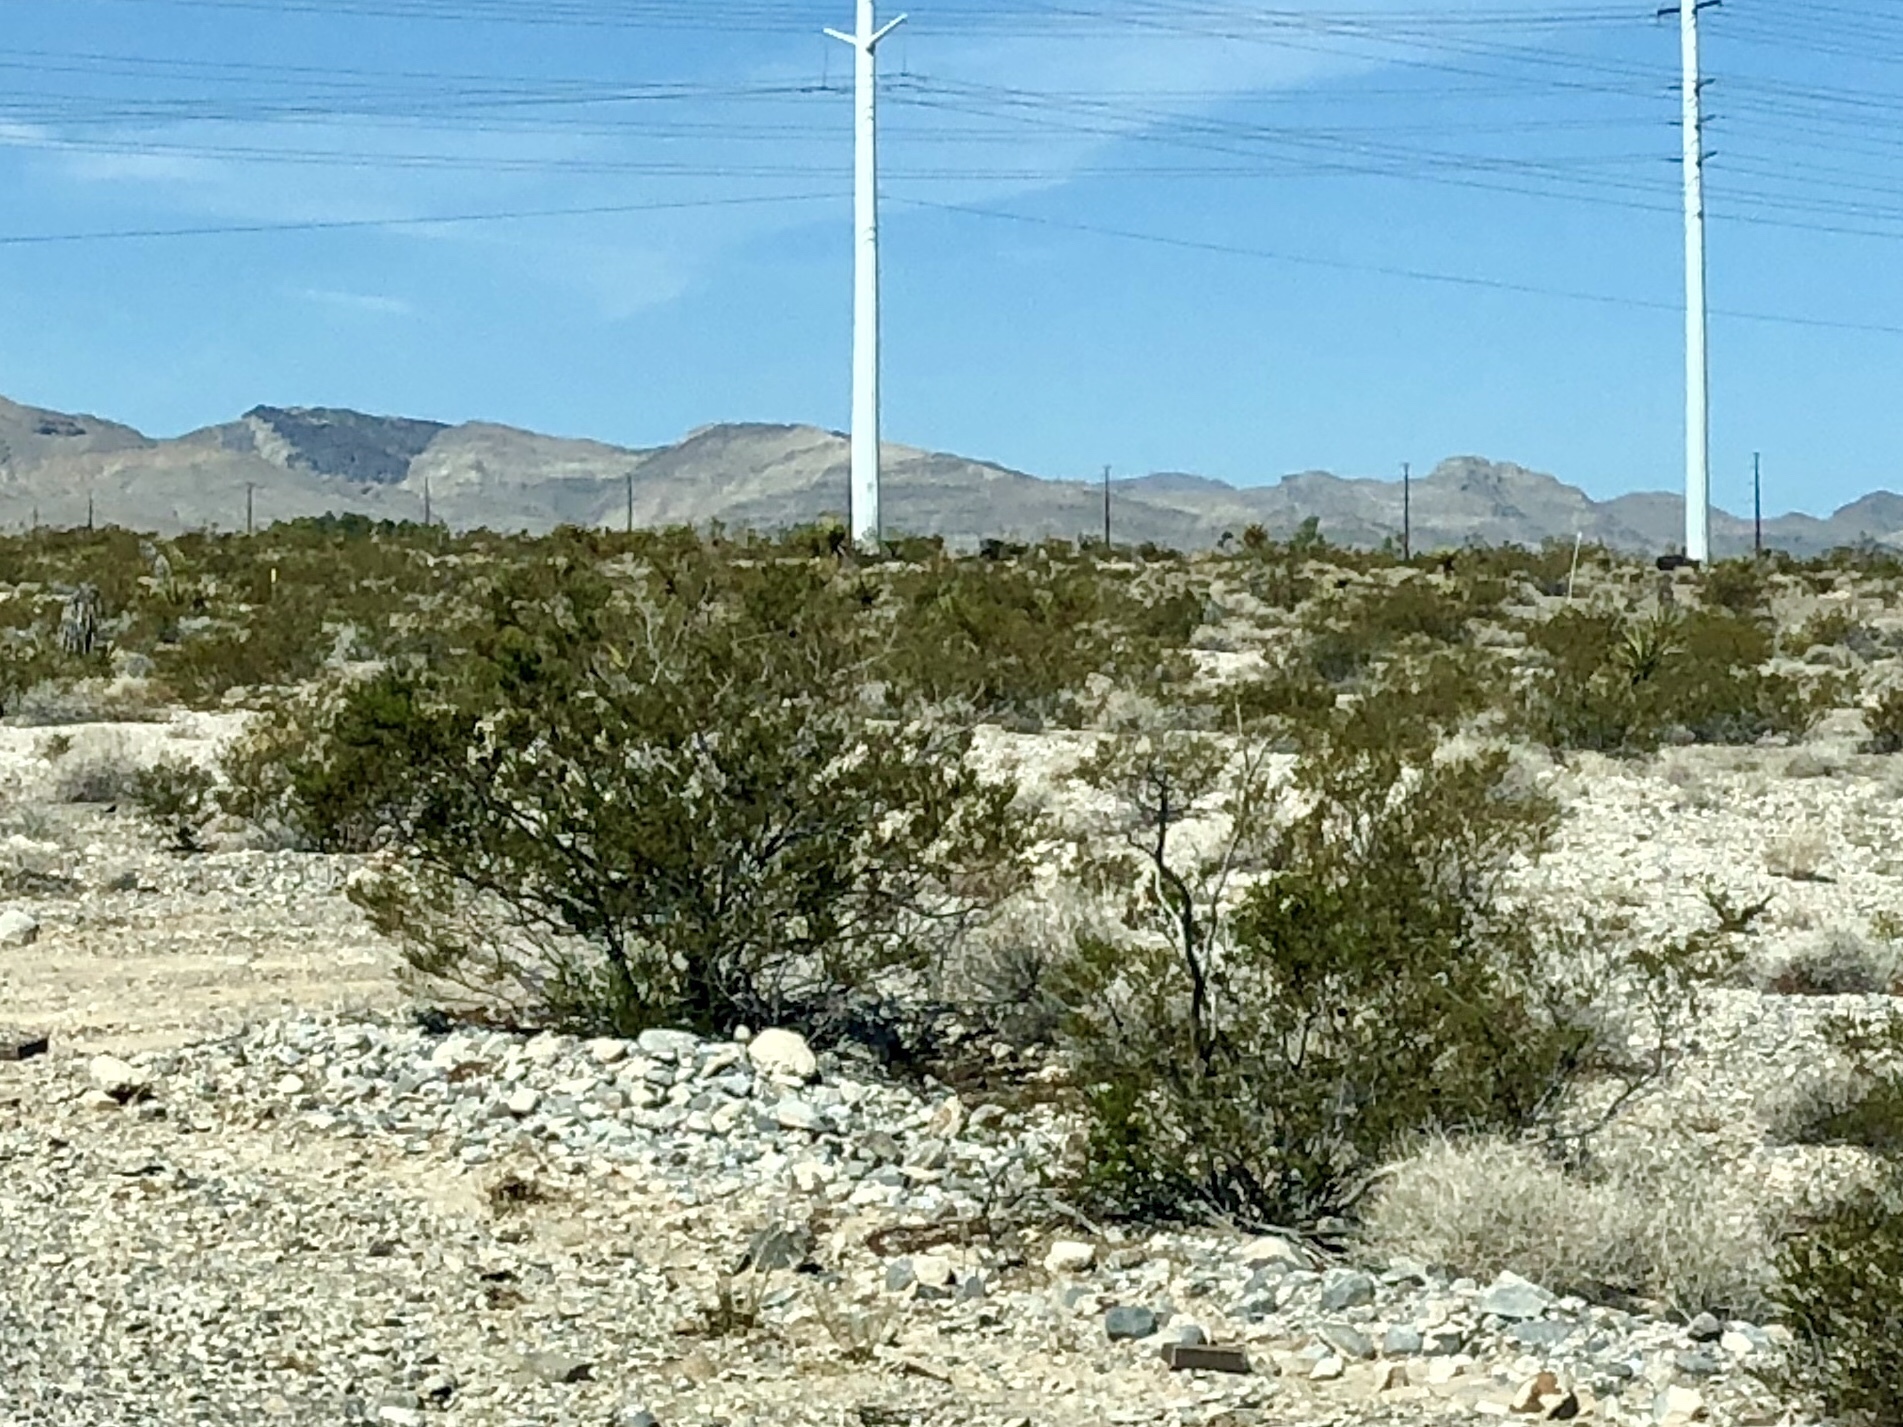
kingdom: Plantae
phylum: Tracheophyta
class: Magnoliopsida
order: Zygophyllales
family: Zygophyllaceae
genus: Larrea
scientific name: Larrea tridentata
